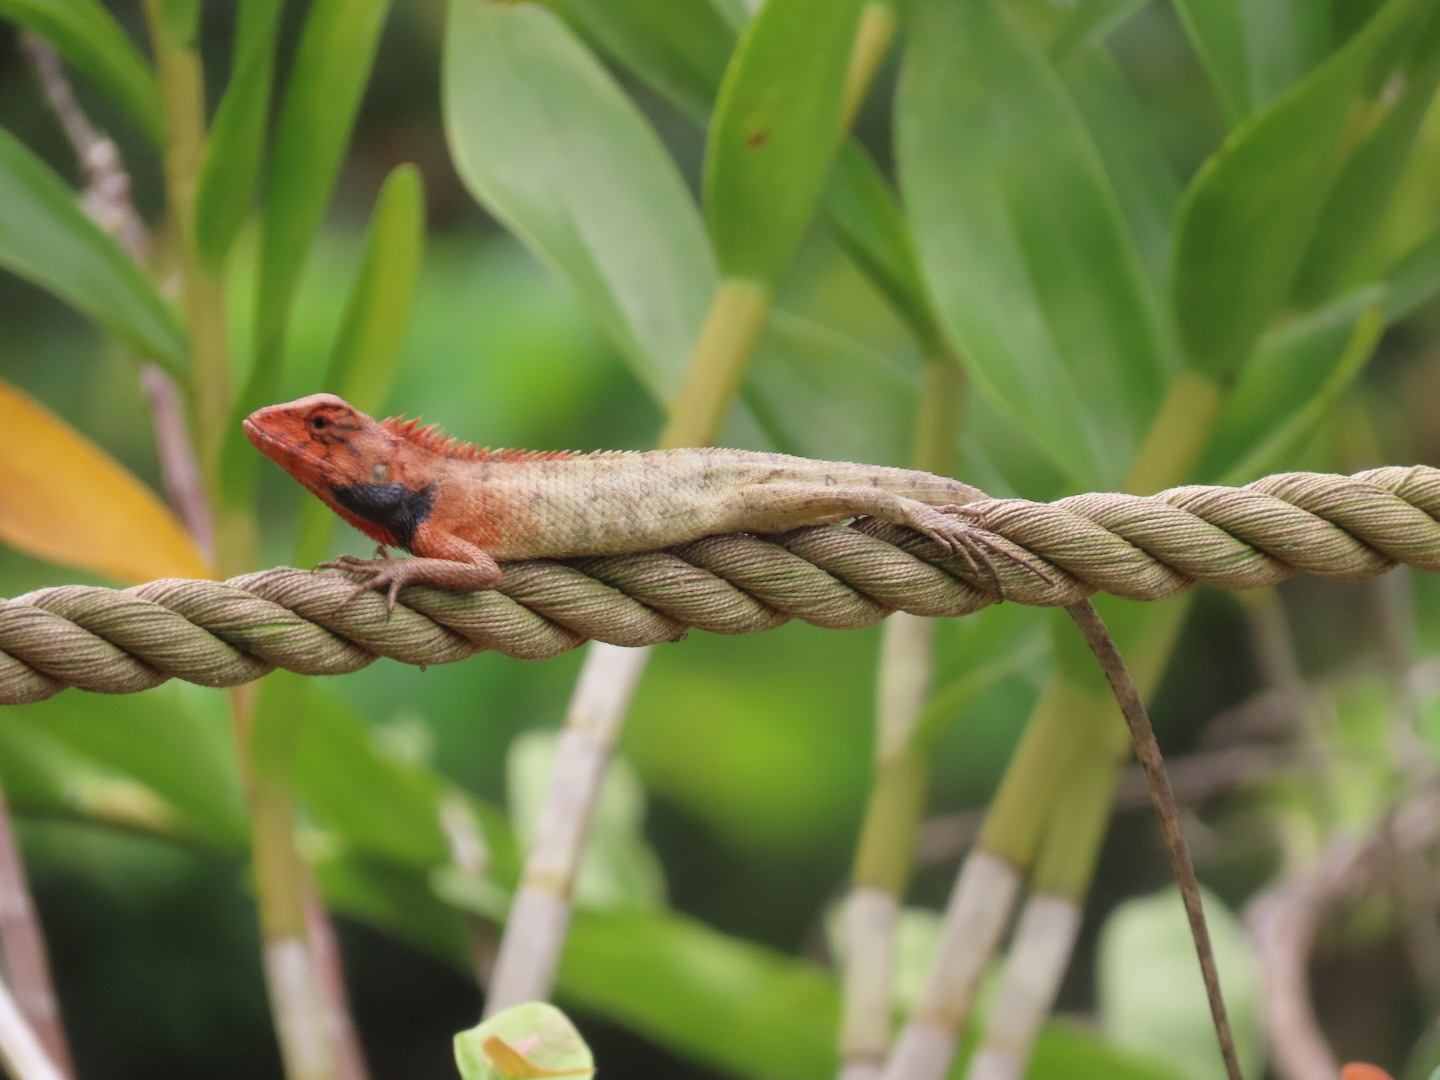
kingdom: Animalia
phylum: Chordata
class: Squamata
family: Agamidae
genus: Calotes
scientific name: Calotes versicolor
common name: Oriental garden lizard
